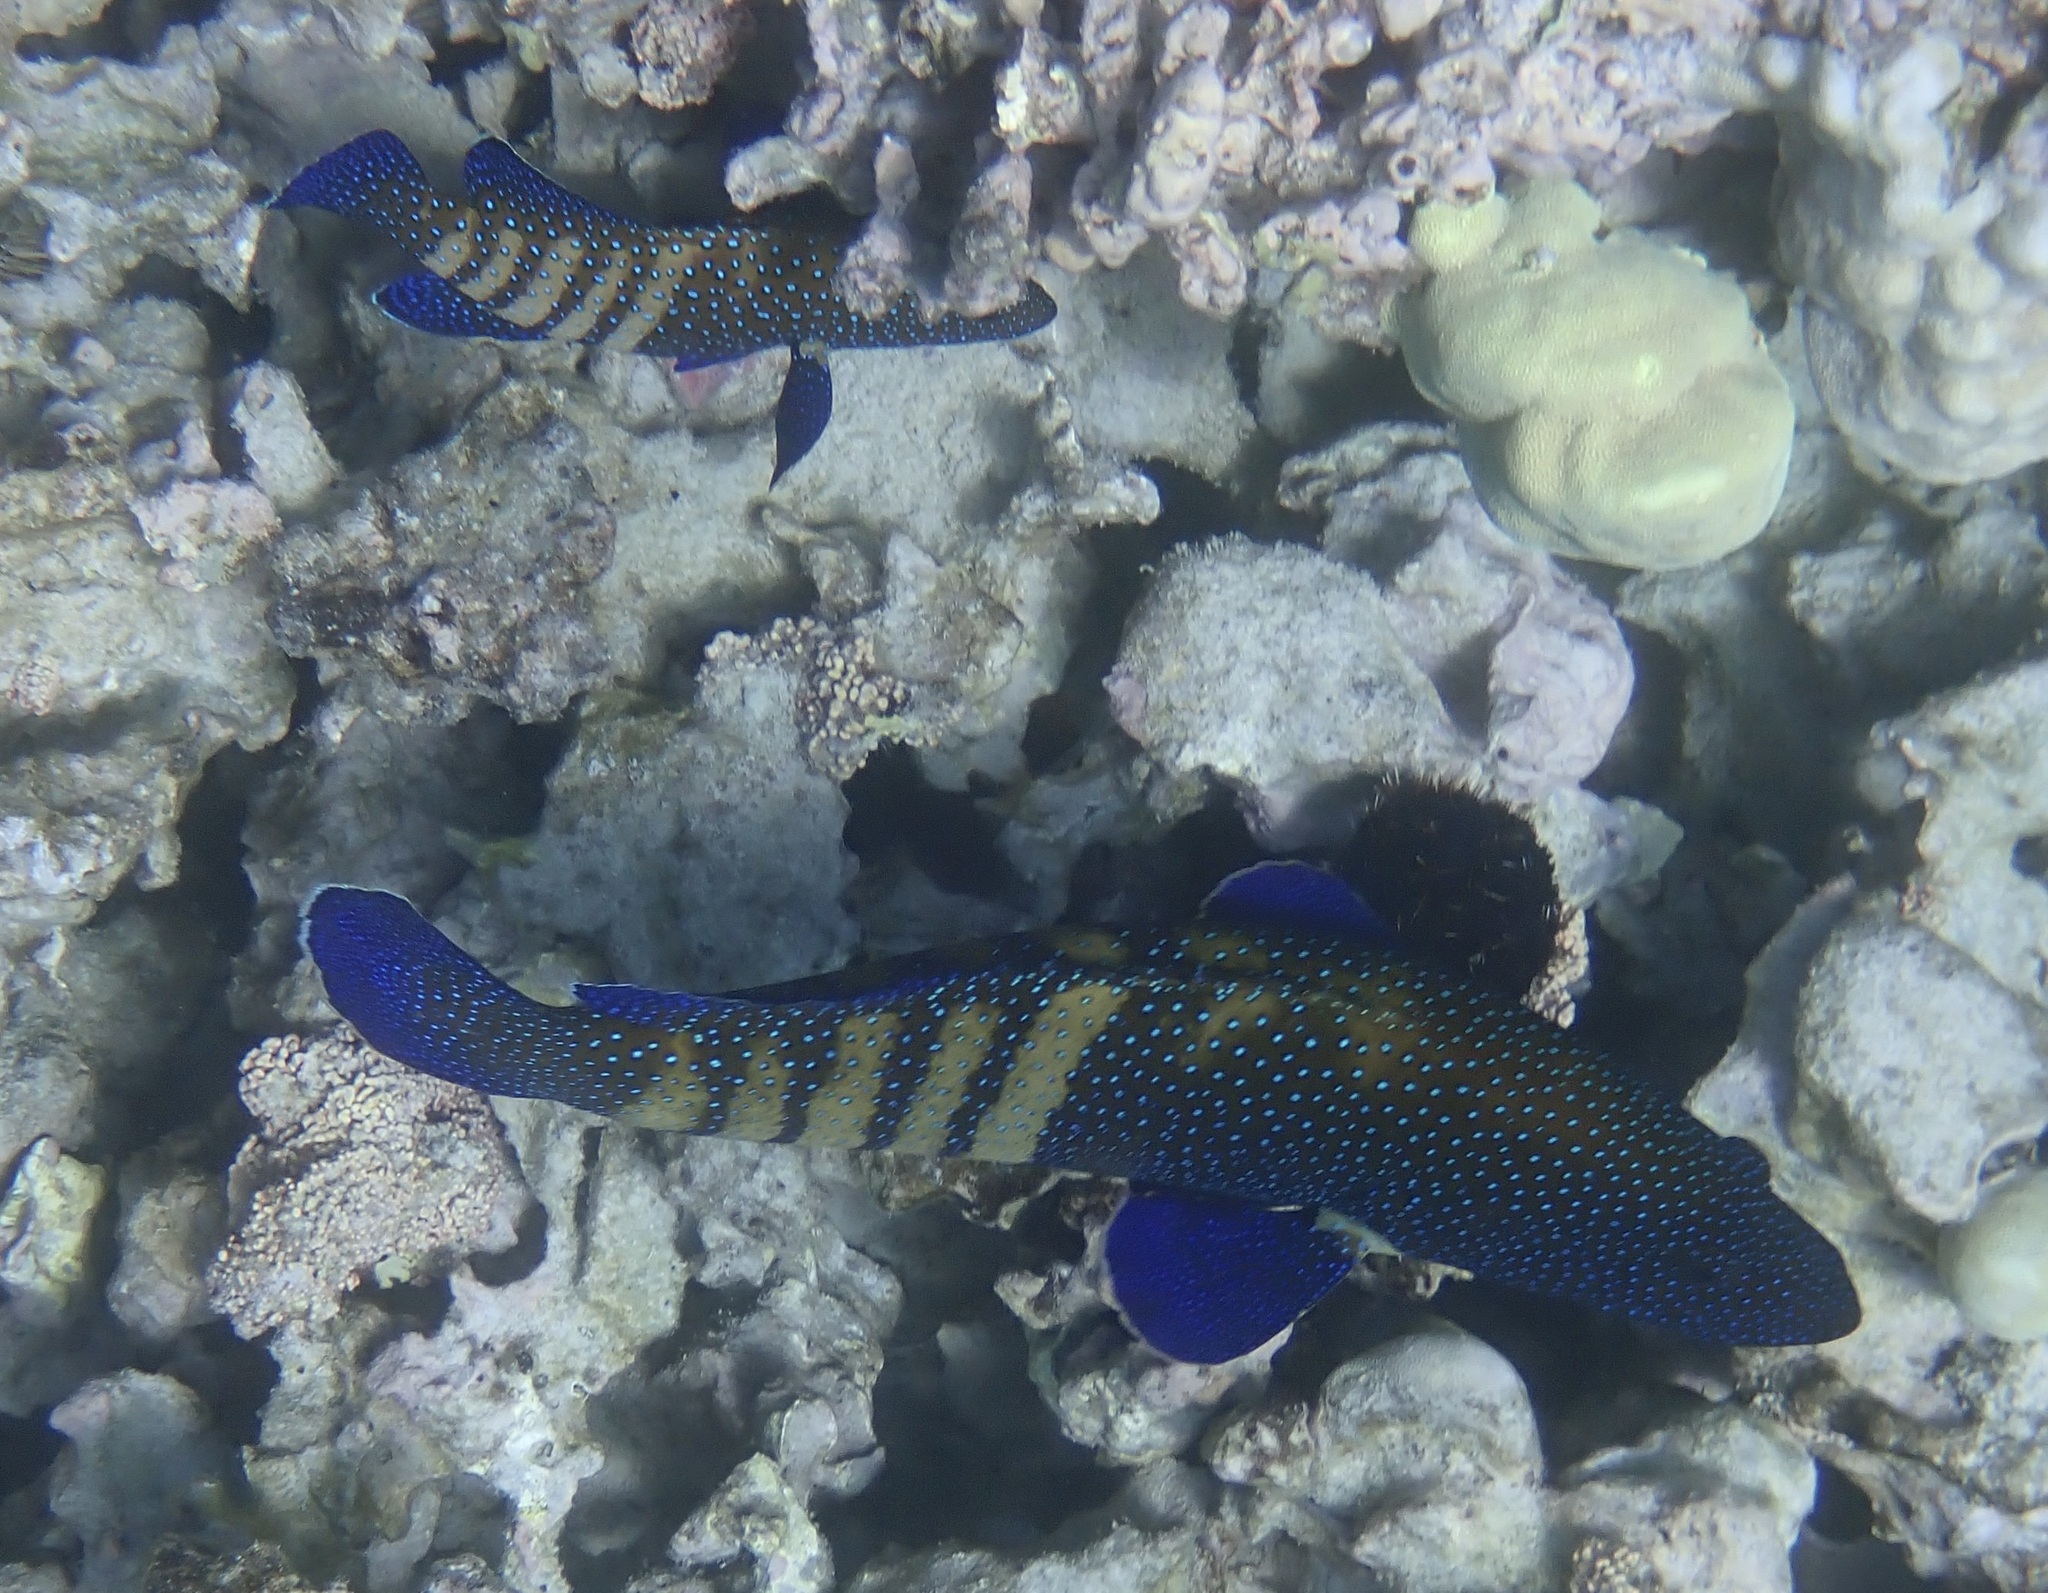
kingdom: Animalia
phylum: Chordata
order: Perciformes
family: Serranidae
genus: Cephalopholis
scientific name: Cephalopholis argus
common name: Peacock grouper
